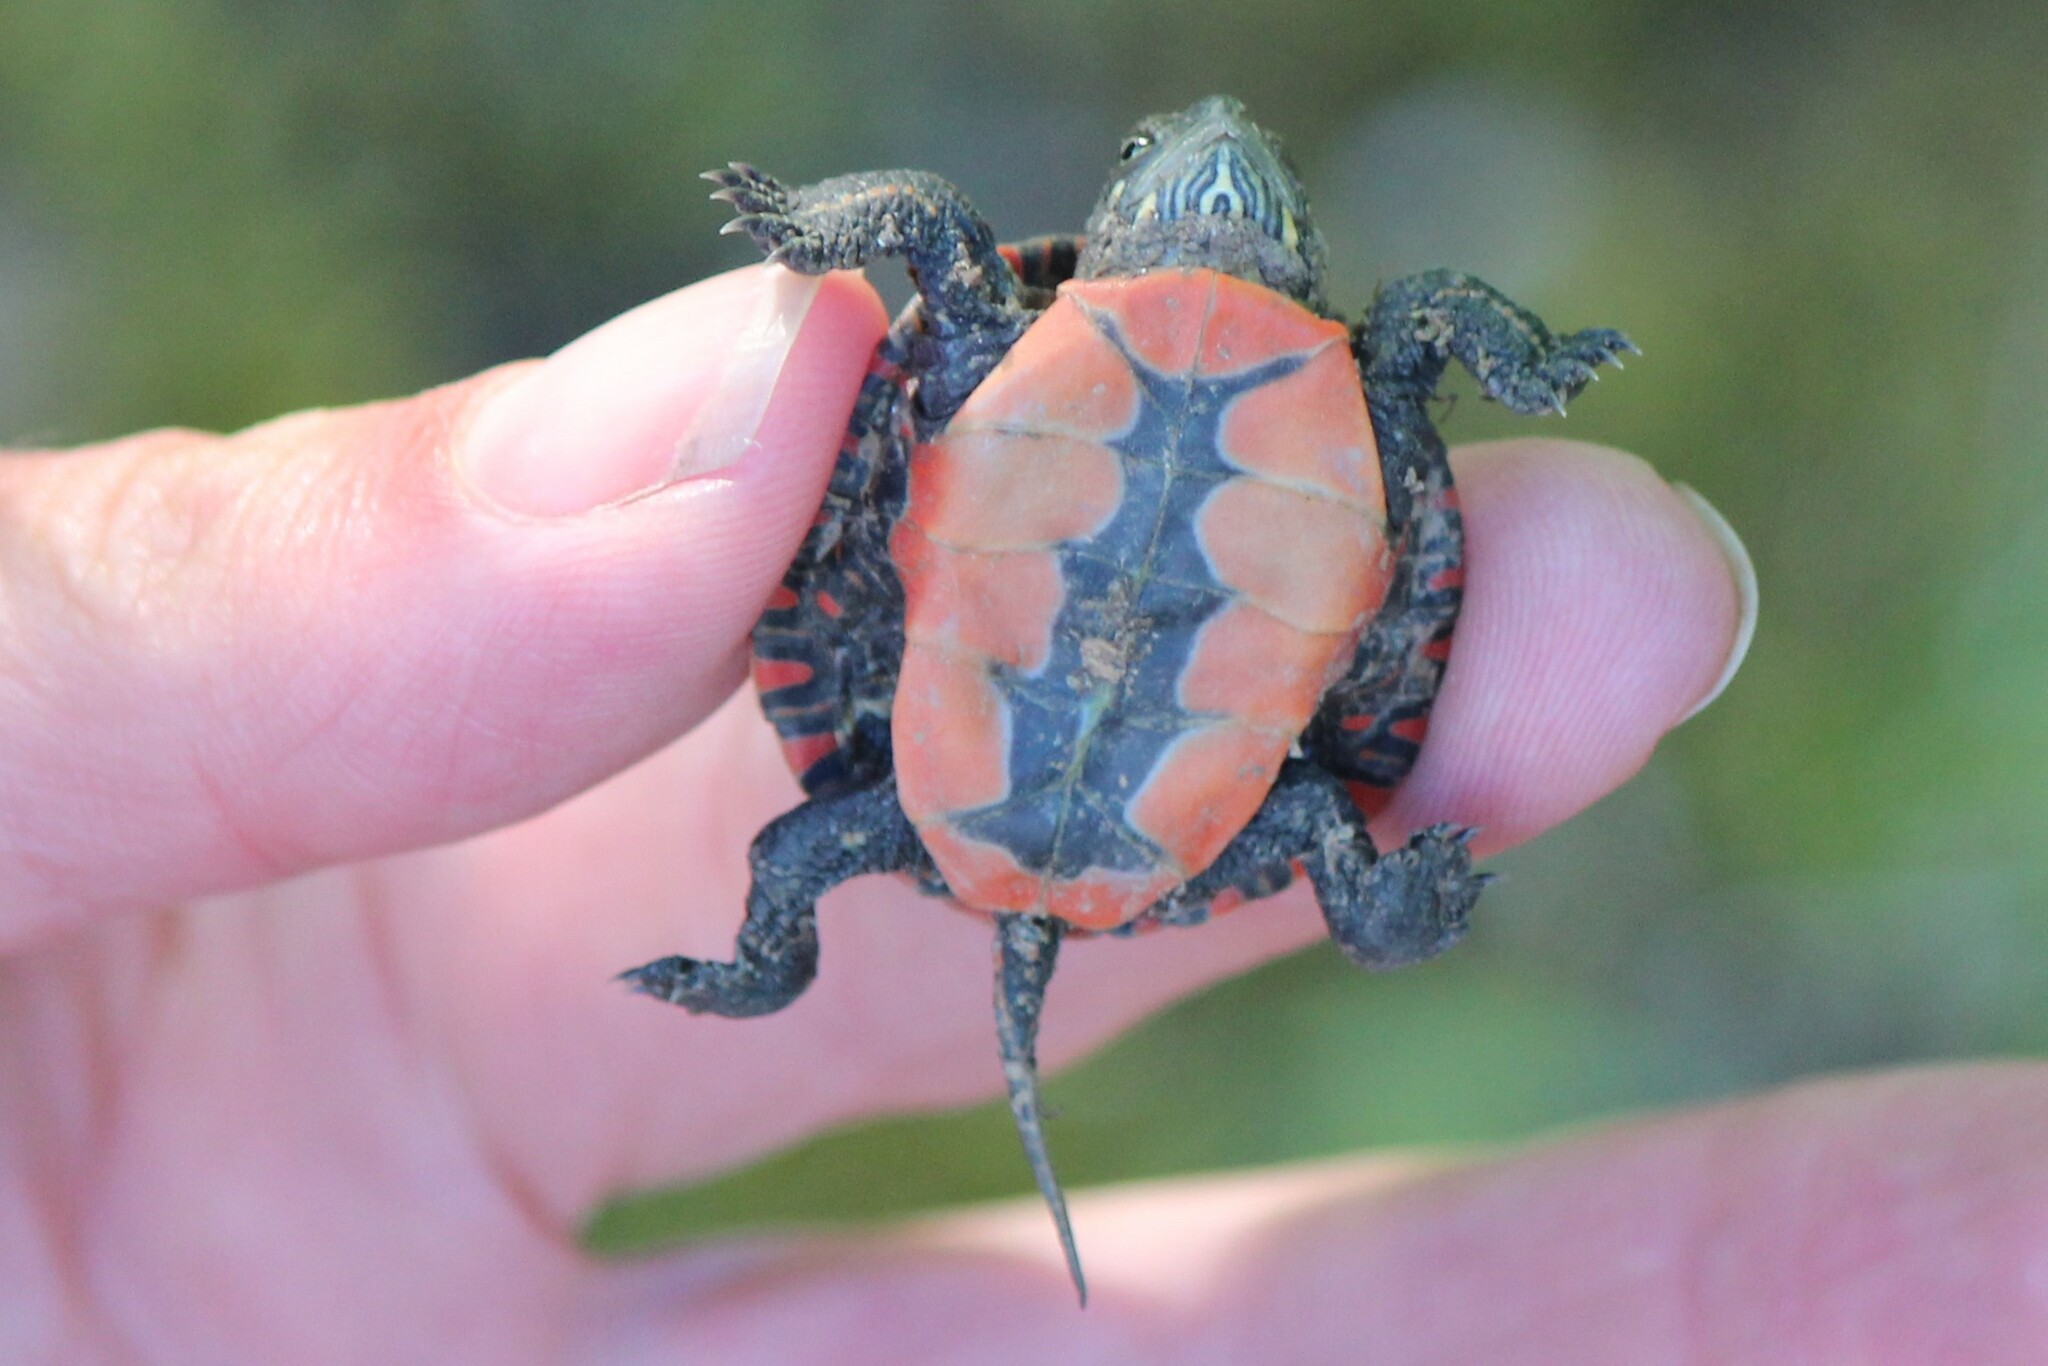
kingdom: Animalia
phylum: Chordata
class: Testudines
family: Emydidae
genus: Chrysemys
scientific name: Chrysemys picta
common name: Painted turtle
